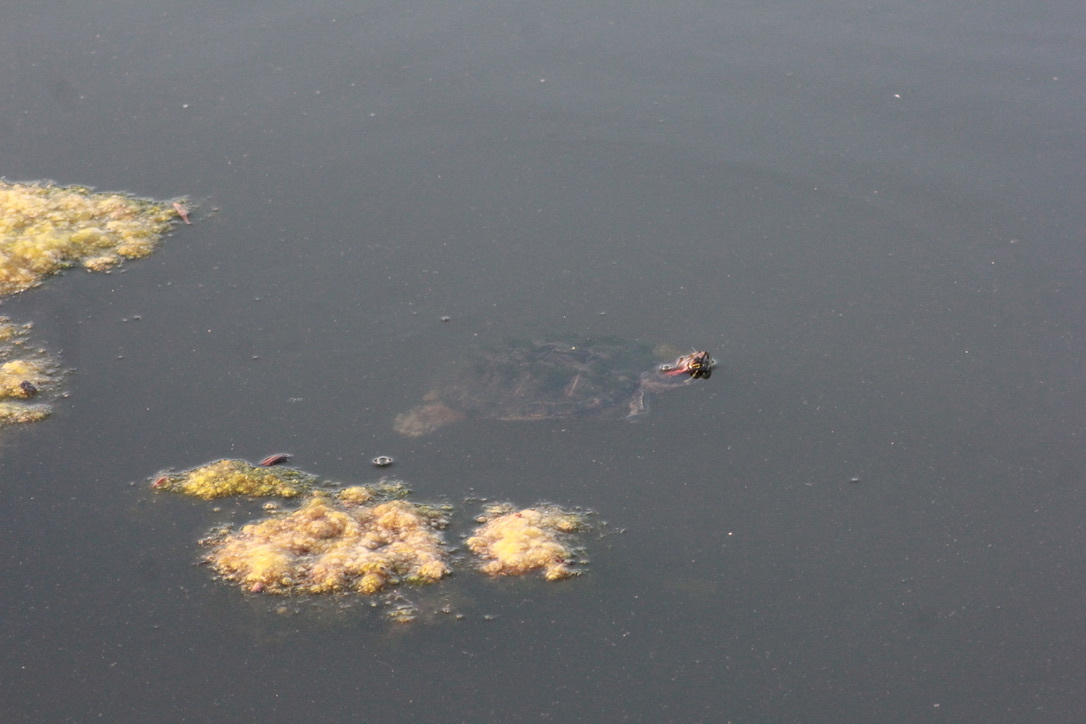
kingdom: Animalia
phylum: Chordata
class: Testudines
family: Emydidae
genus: Trachemys
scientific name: Trachemys scripta
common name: Slider
